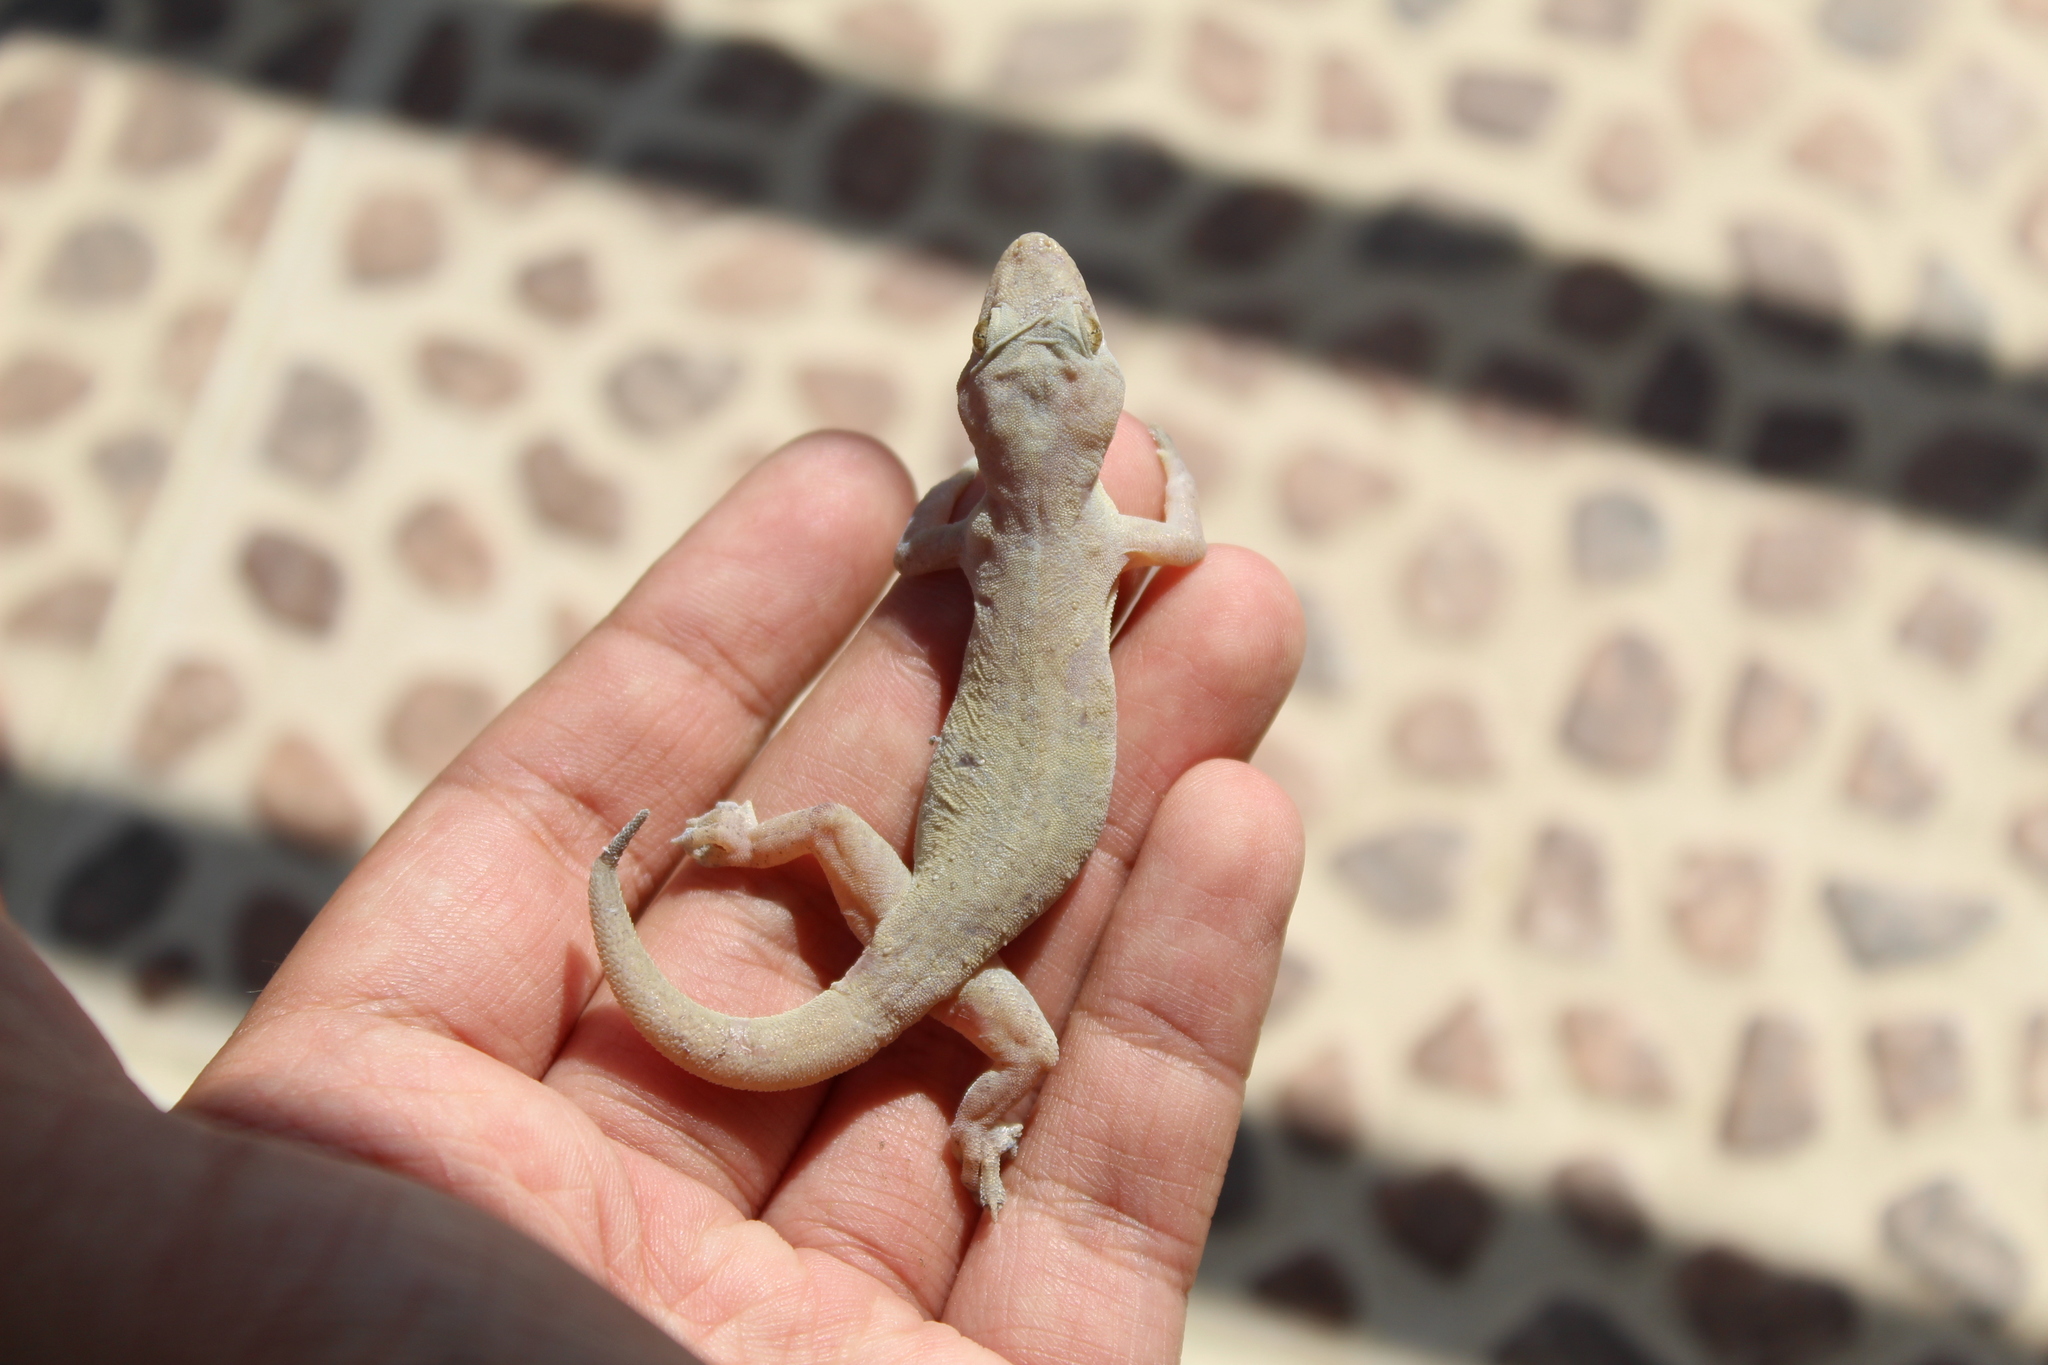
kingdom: Animalia
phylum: Chordata
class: Squamata
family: Gekkonidae
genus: Hemidactylus
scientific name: Hemidactylus frenatus
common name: Common house gecko
